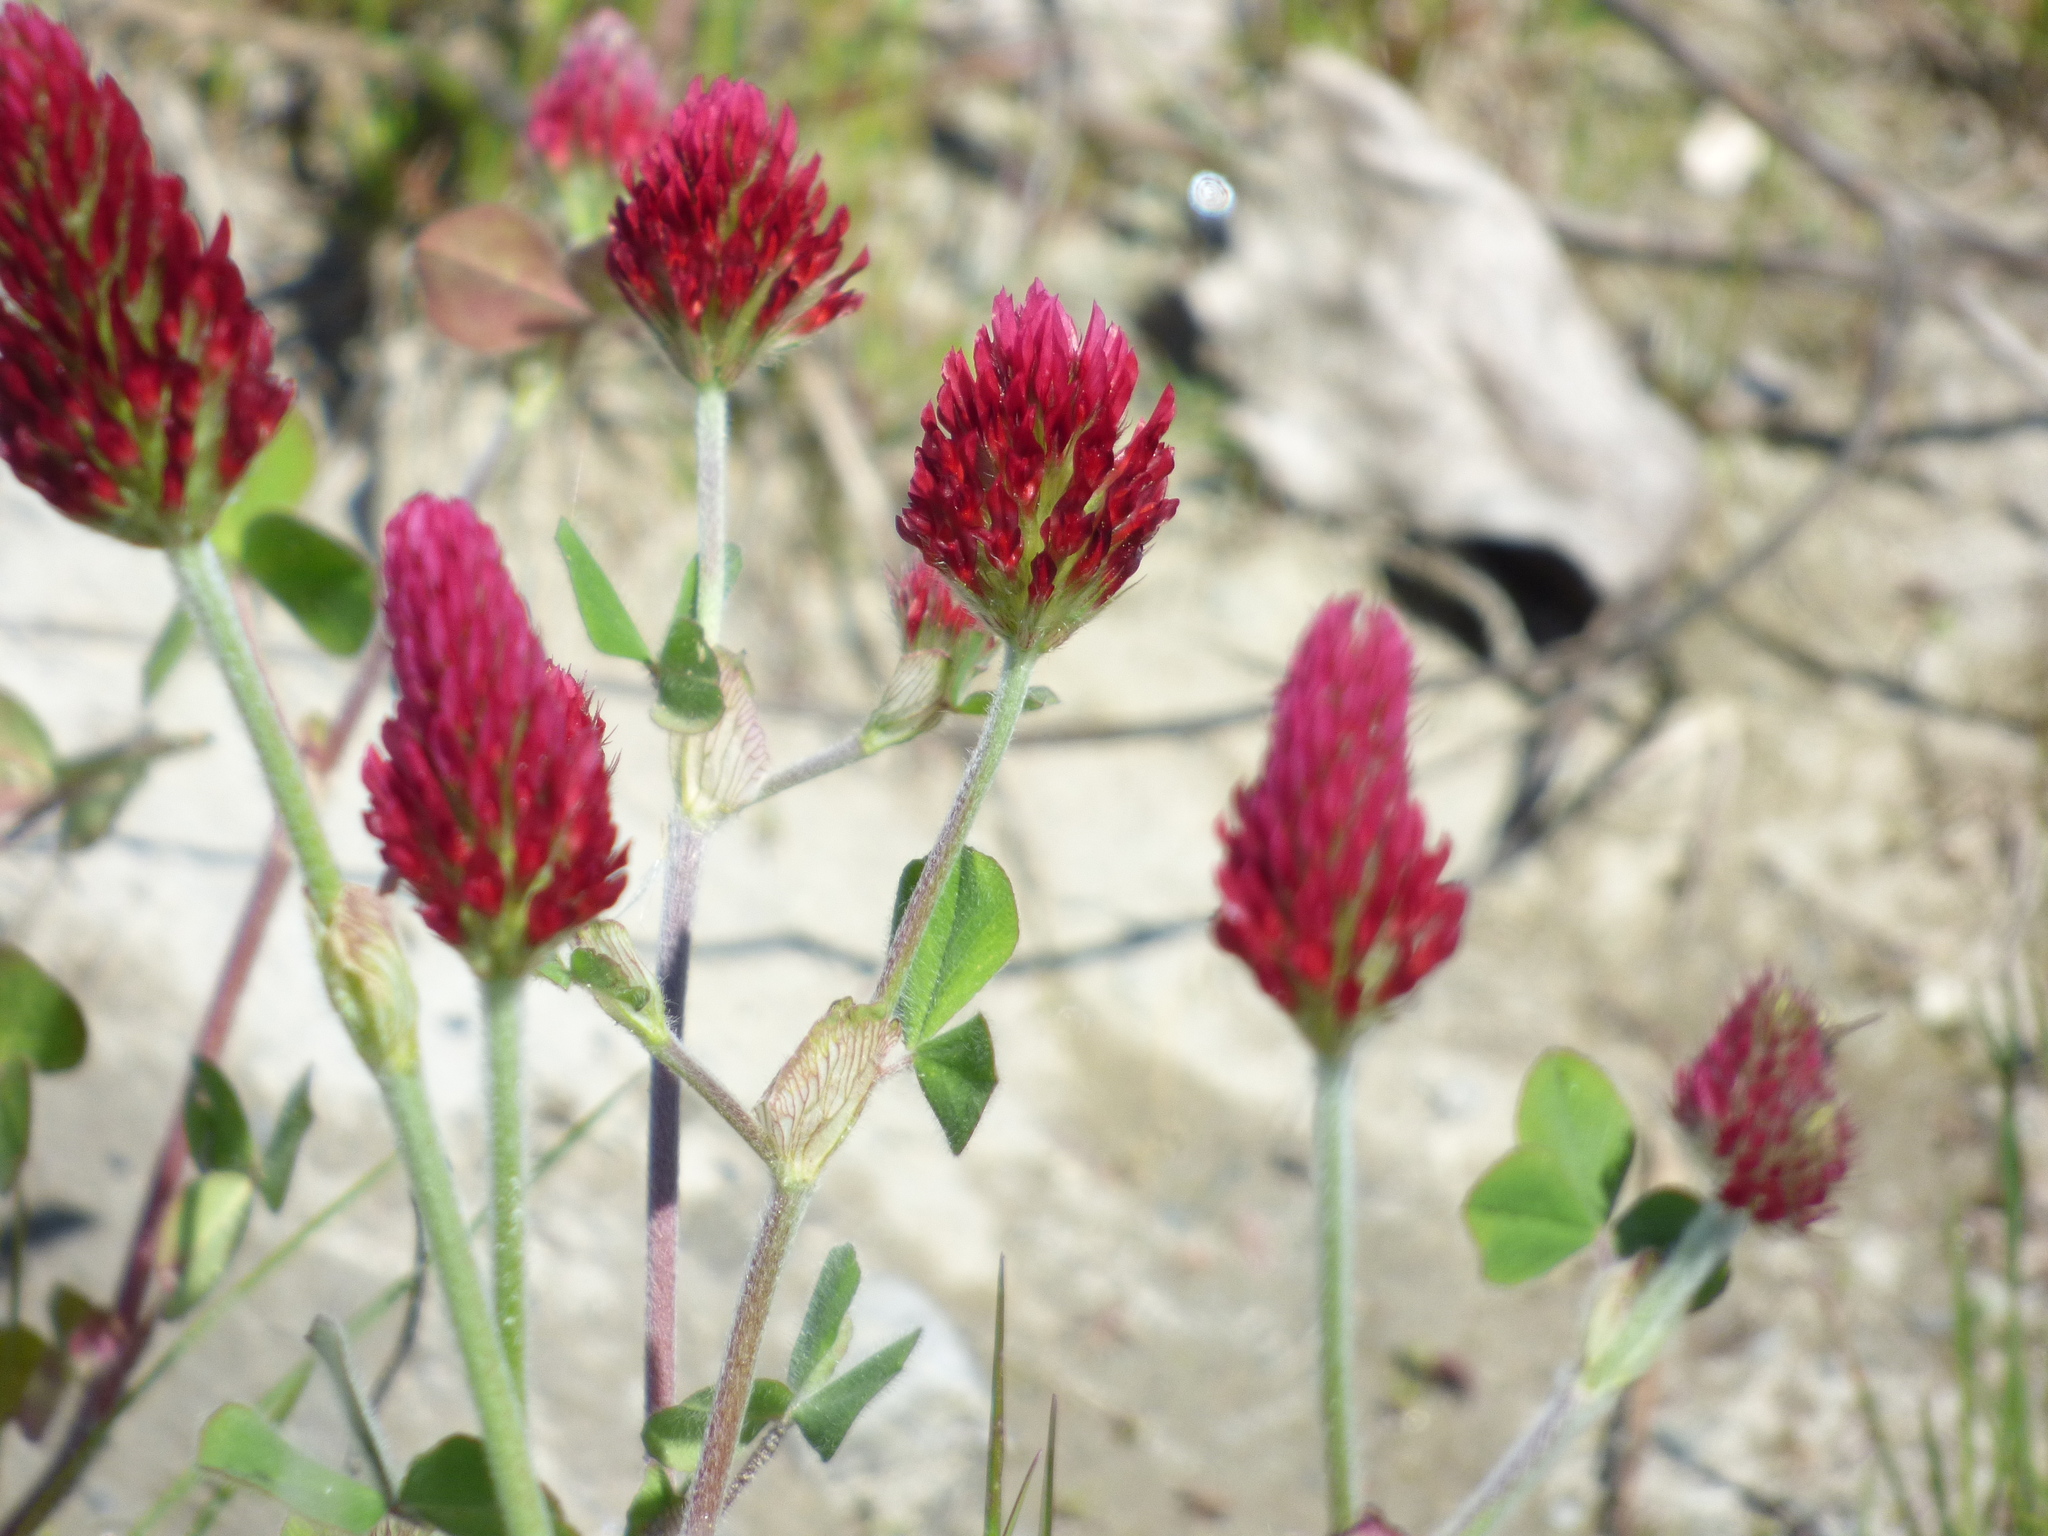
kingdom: Plantae
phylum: Tracheophyta
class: Magnoliopsida
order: Fabales
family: Fabaceae
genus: Trifolium
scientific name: Trifolium incarnatum
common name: Crimson clover
